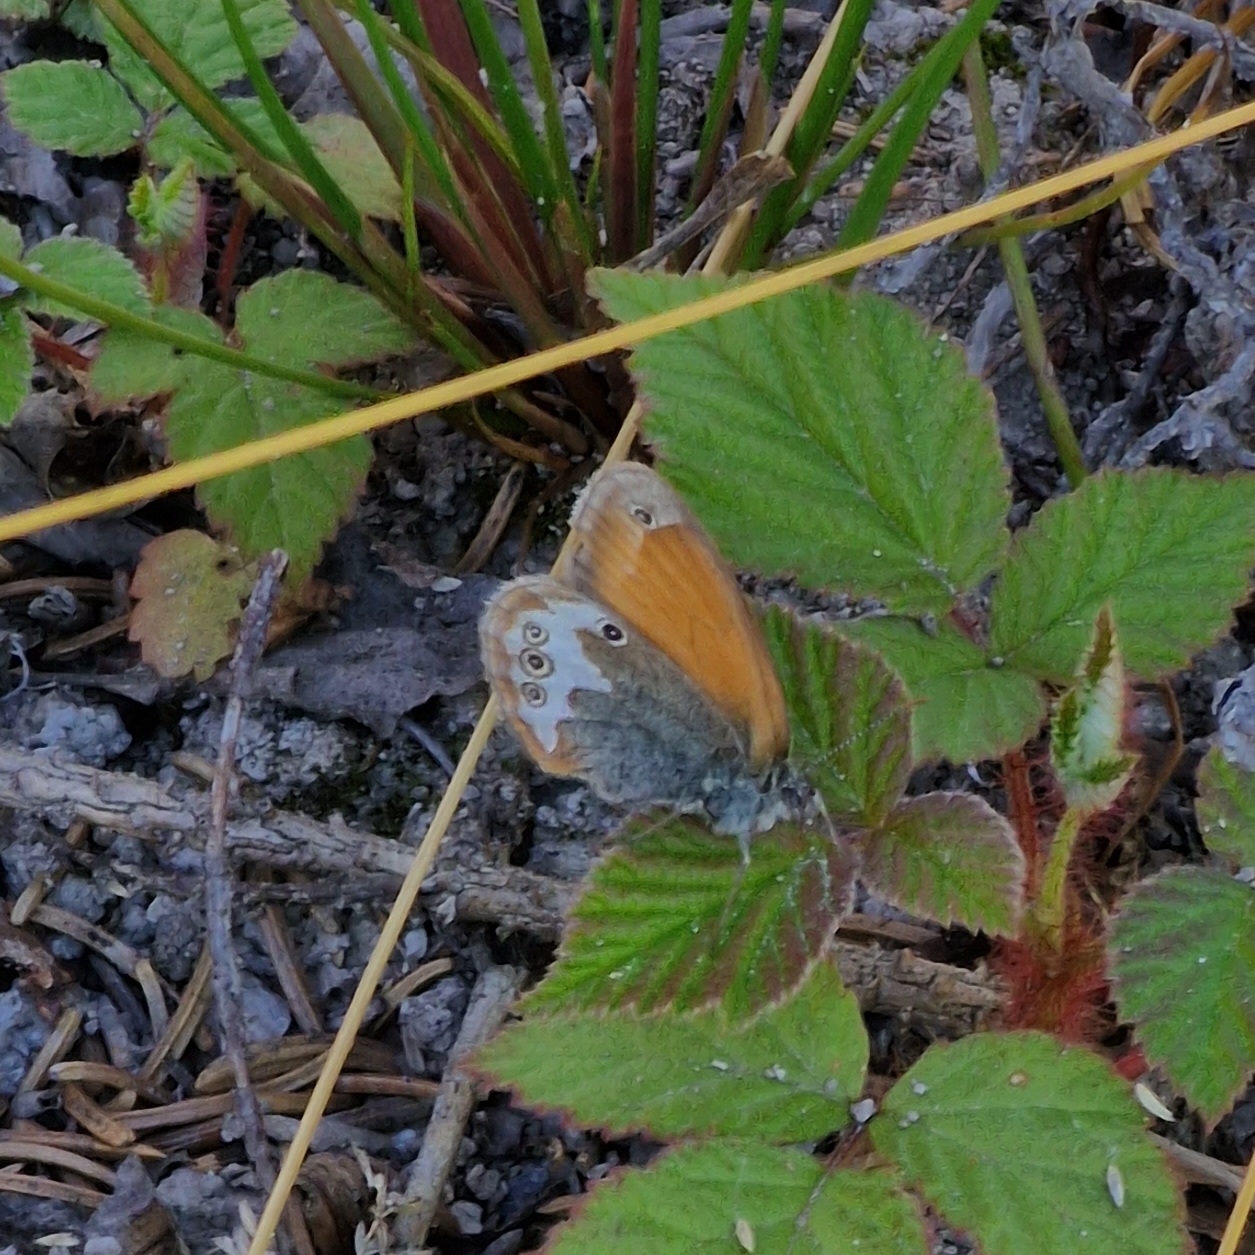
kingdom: Animalia
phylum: Arthropoda
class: Insecta
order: Lepidoptera
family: Nymphalidae
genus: Coenonympha
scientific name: Coenonympha arcania
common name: Pearly heath
